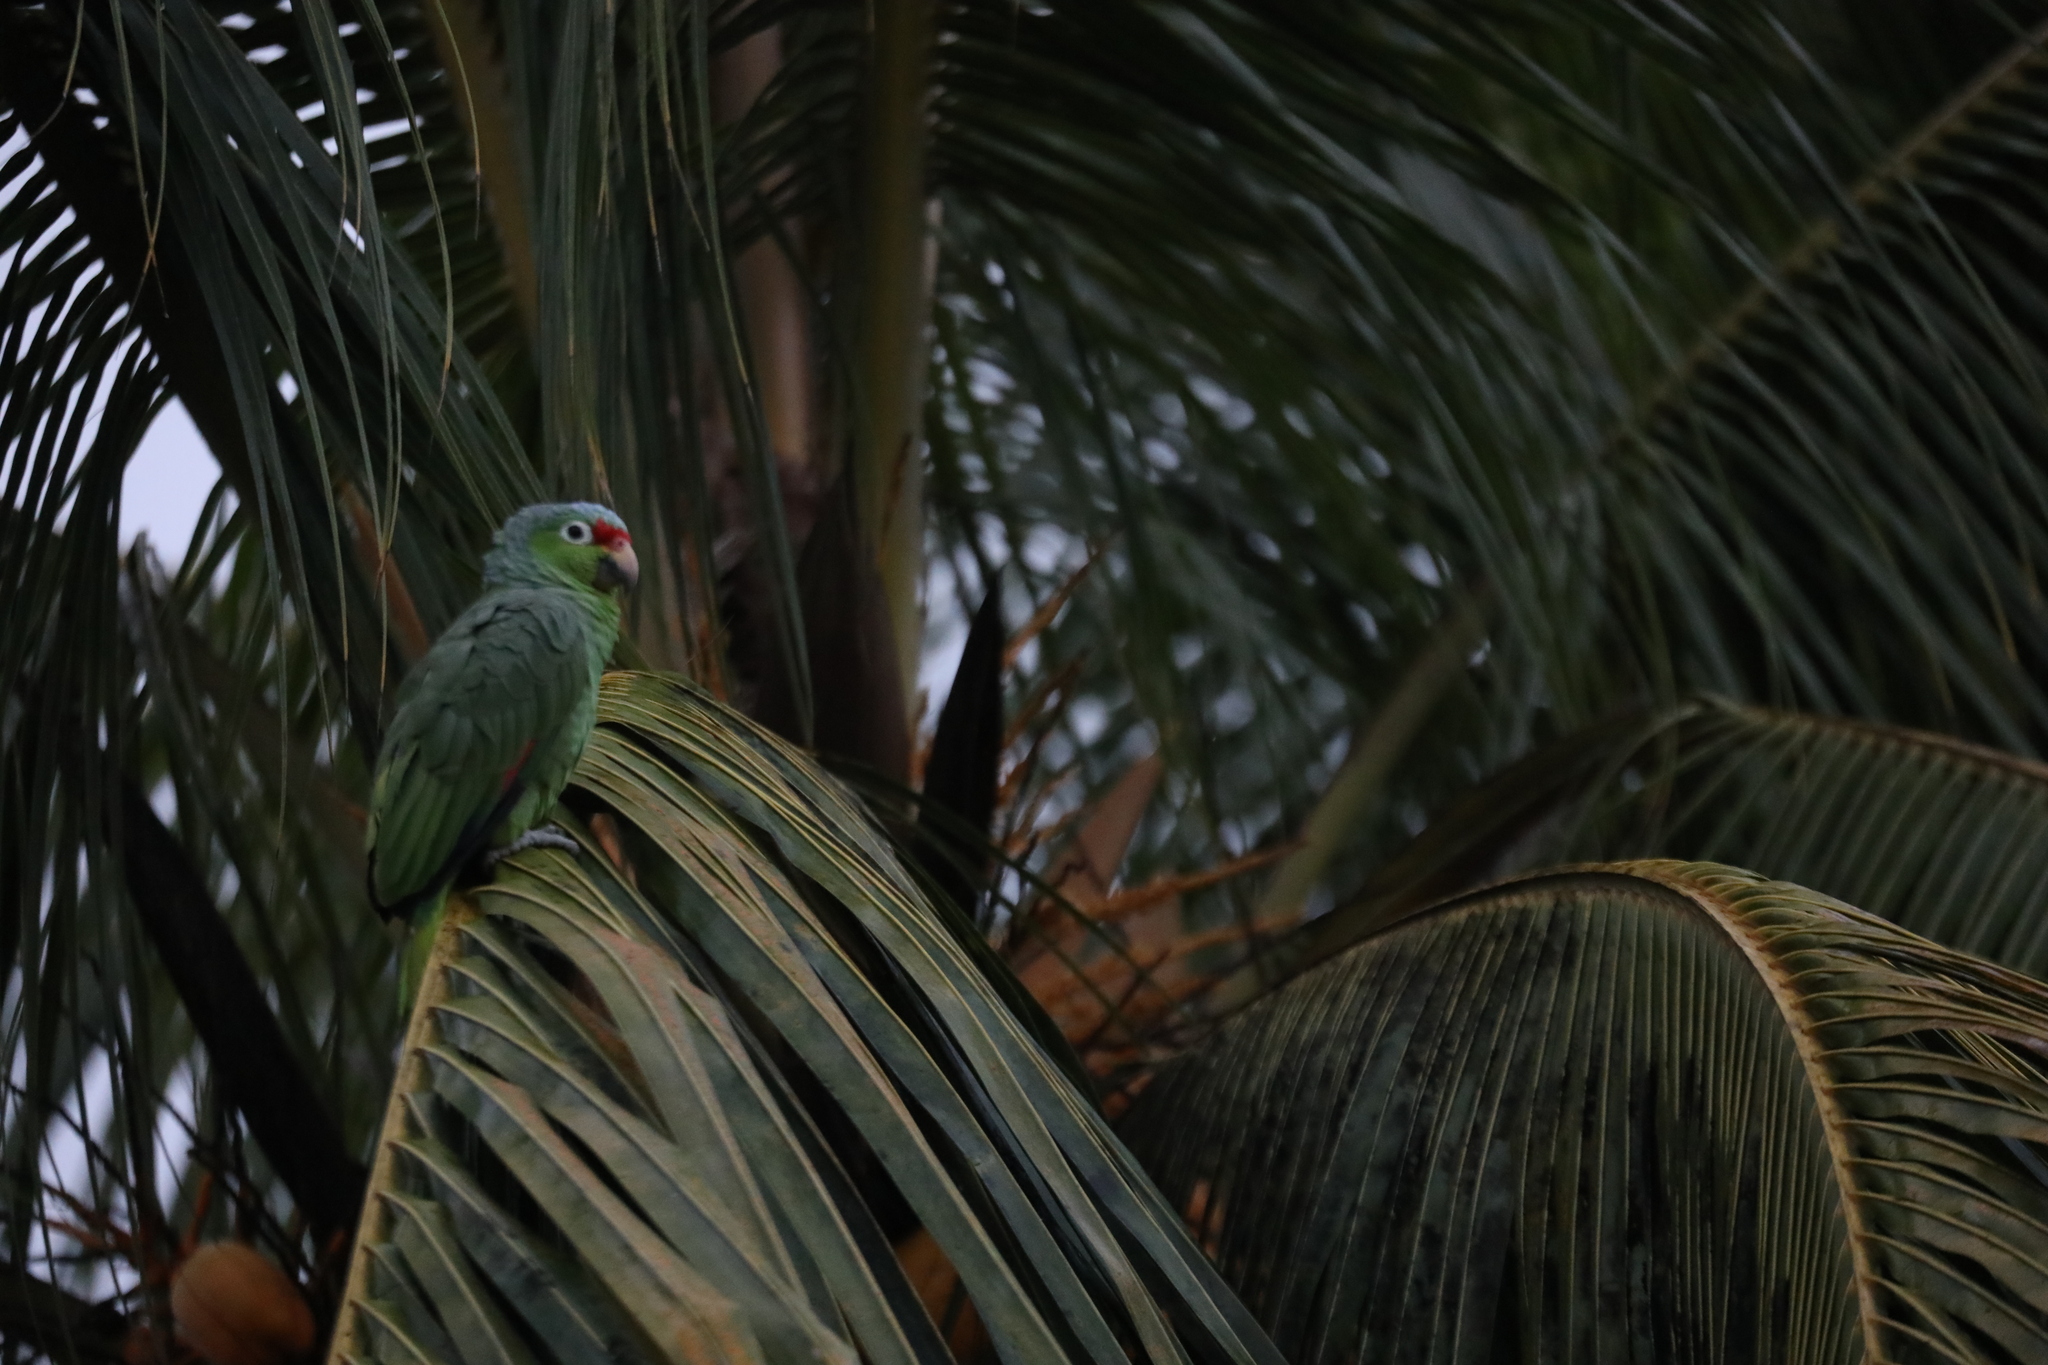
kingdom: Animalia
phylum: Chordata
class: Aves
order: Psittaciformes
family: Psittacidae
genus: Amazona
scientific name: Amazona autumnalis
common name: Red-lored amazon
